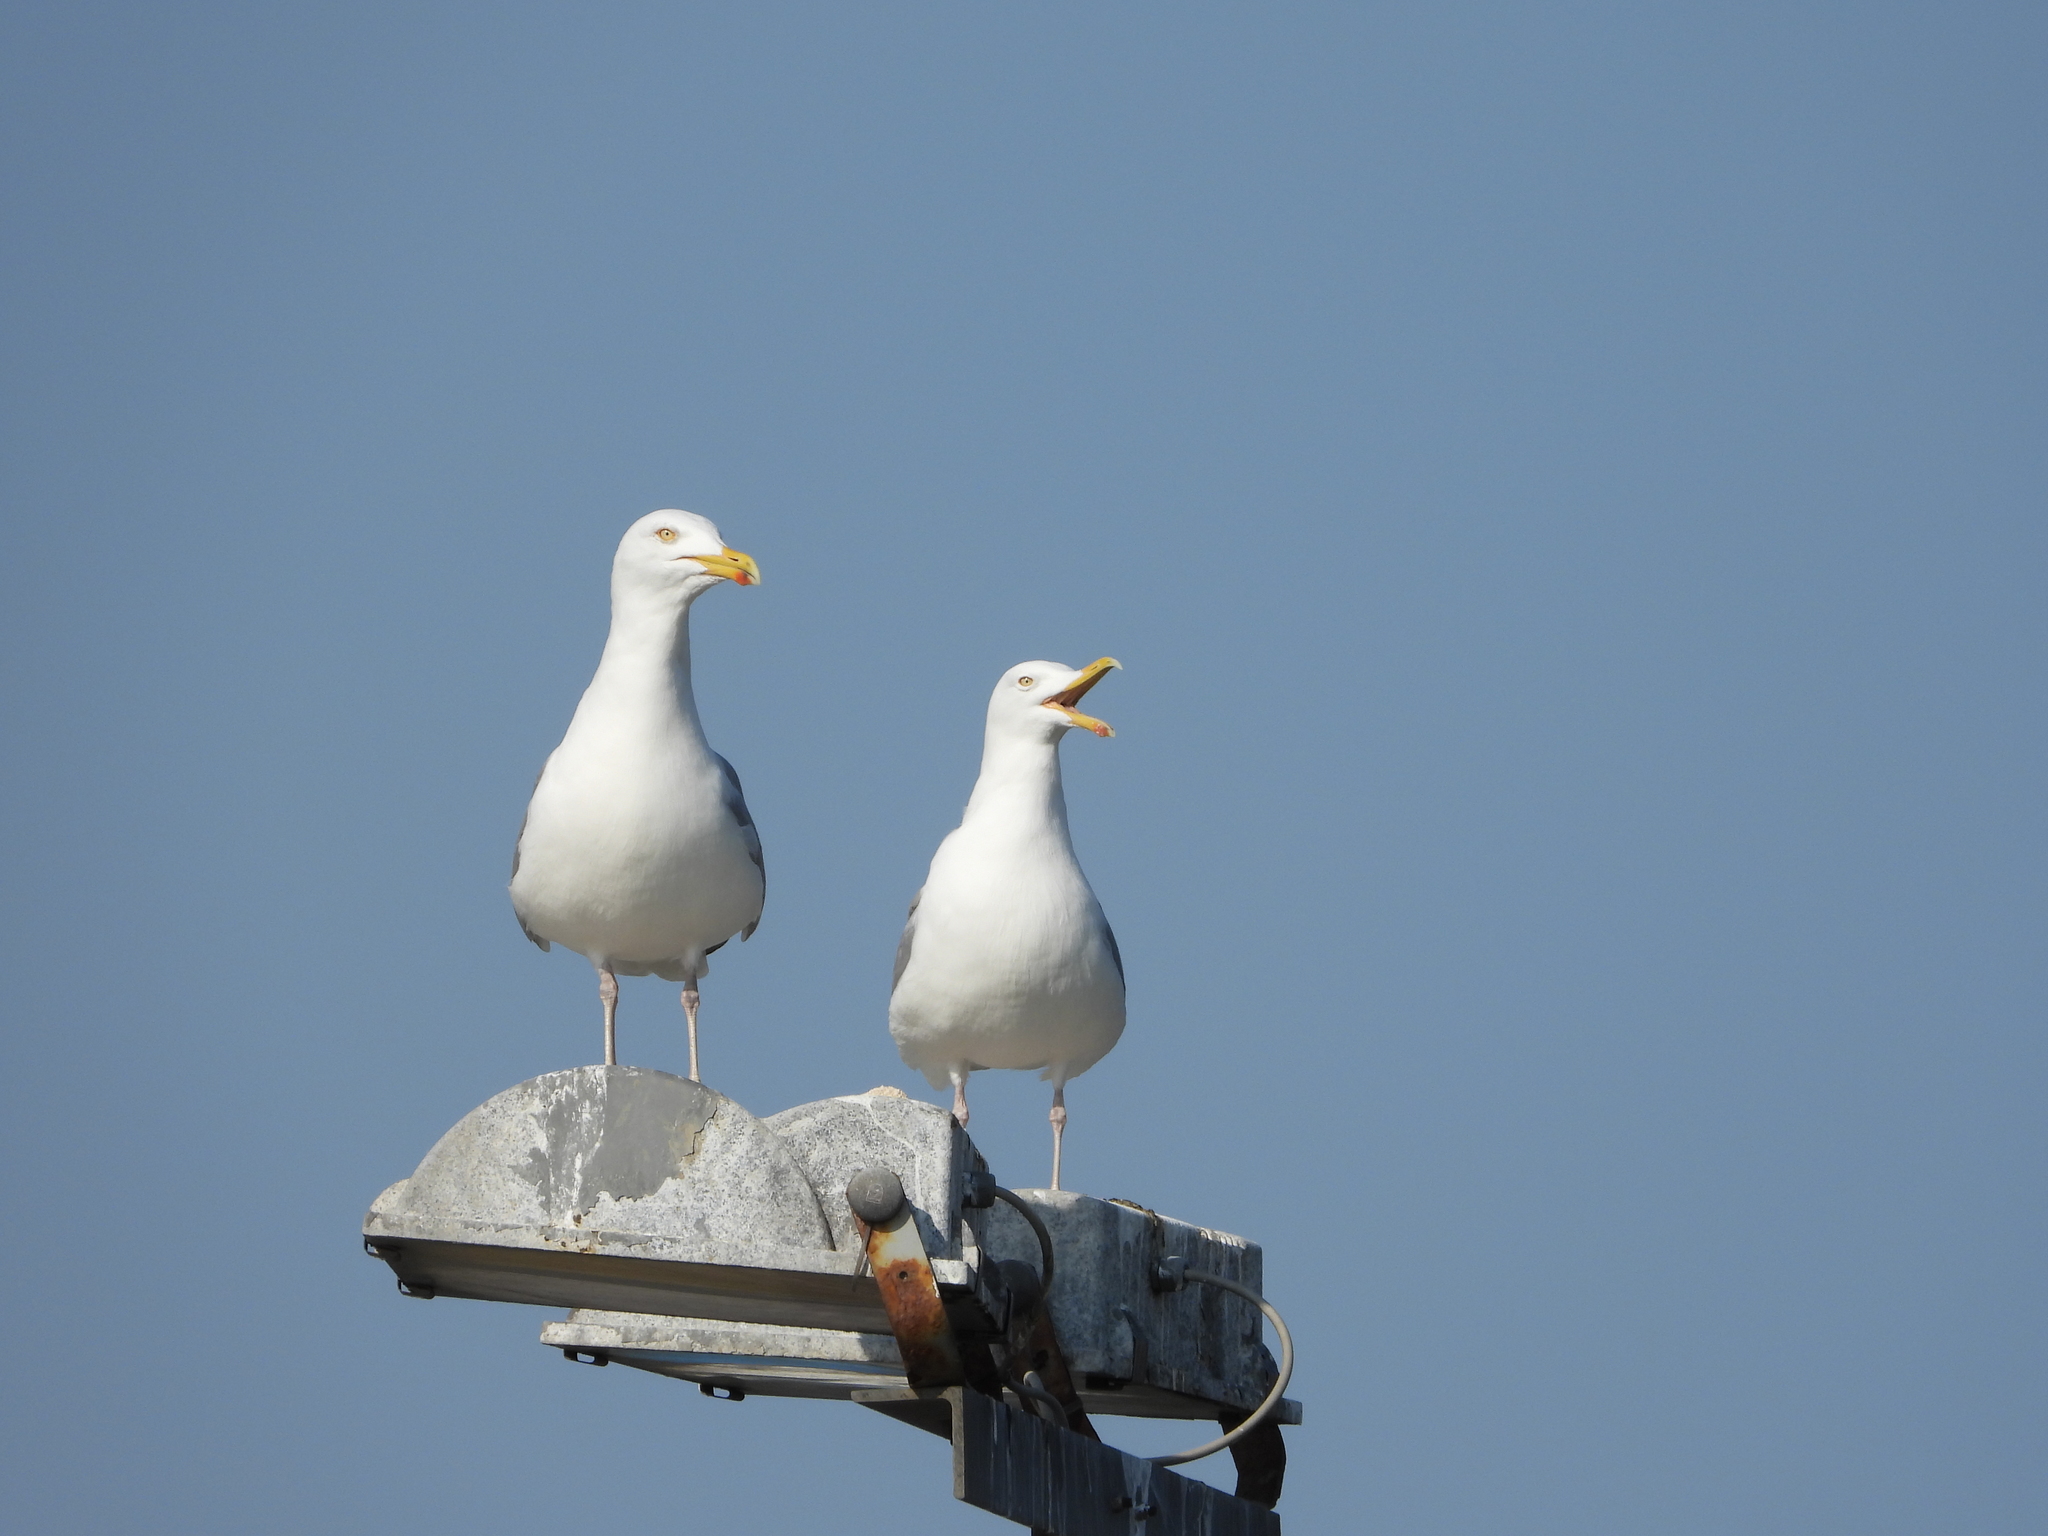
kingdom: Animalia
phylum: Chordata
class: Aves
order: Charadriiformes
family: Laridae
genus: Larus
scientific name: Larus argentatus
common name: Herring gull
